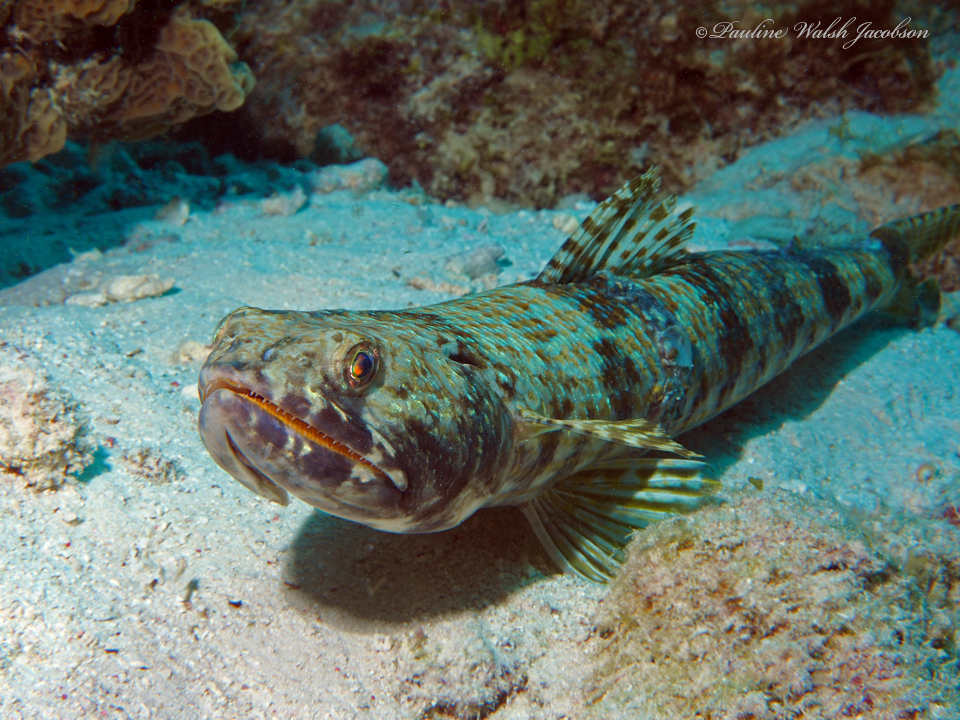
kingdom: Animalia
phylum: Chordata
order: Aulopiformes
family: Synodontidae
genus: Synodus
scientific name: Synodus intermedius
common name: Sand diver
